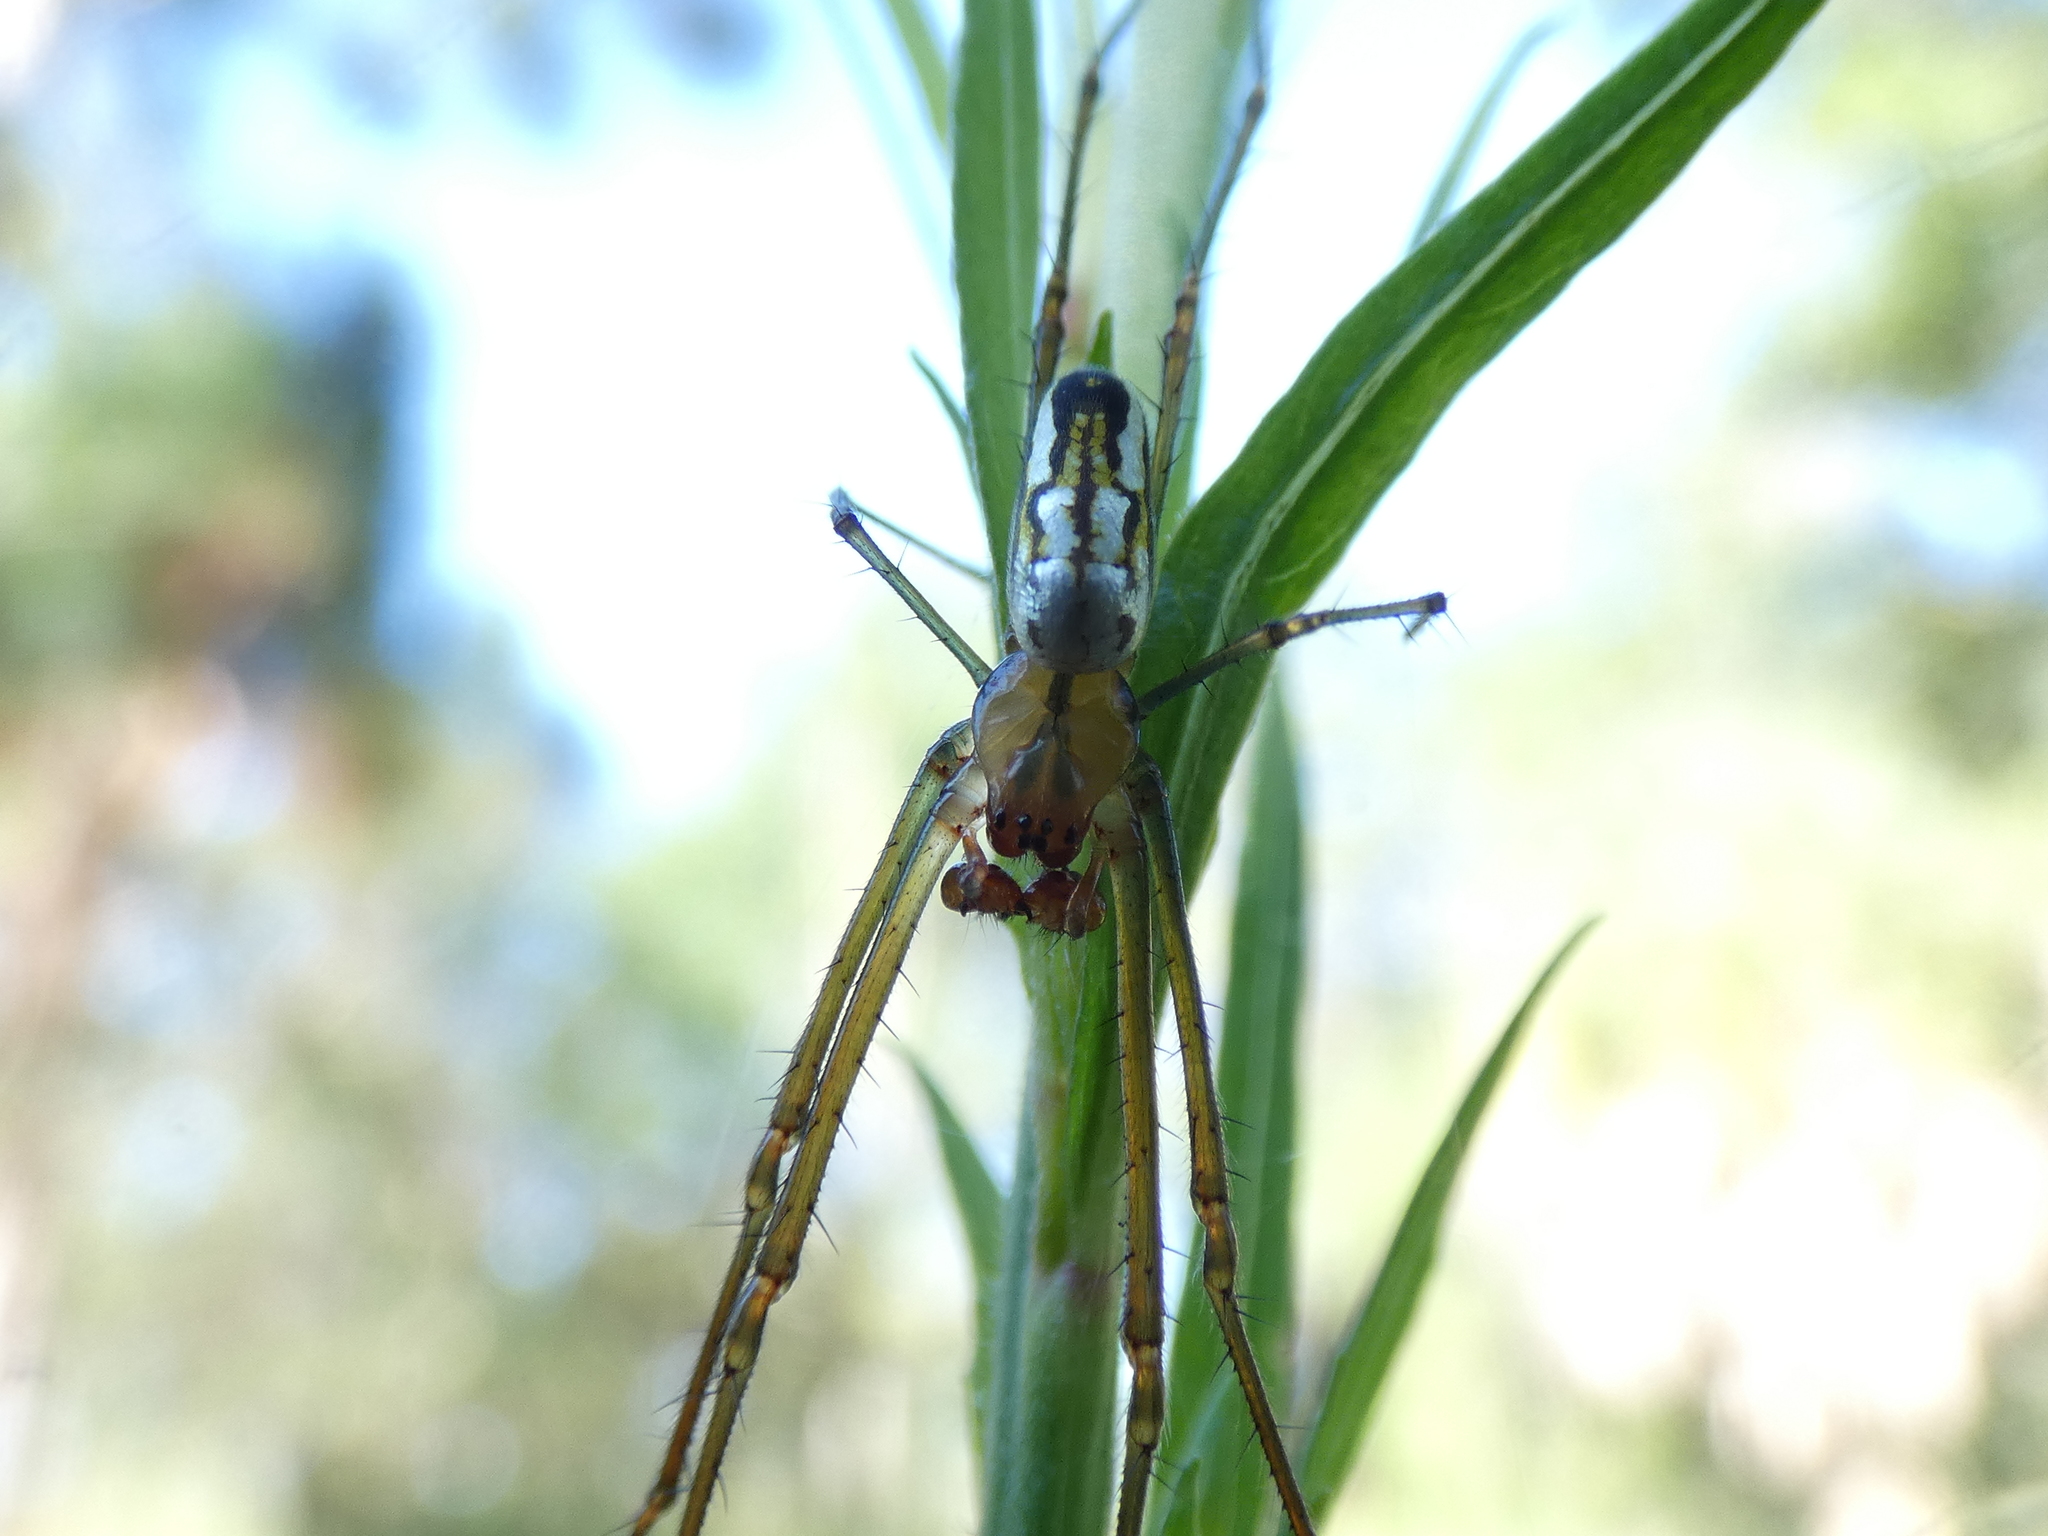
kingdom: Animalia
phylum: Arthropoda
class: Arachnida
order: Araneae
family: Tetragnathidae
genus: Leucauge
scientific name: Leucauge argyra
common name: Longjawed orb weavers
